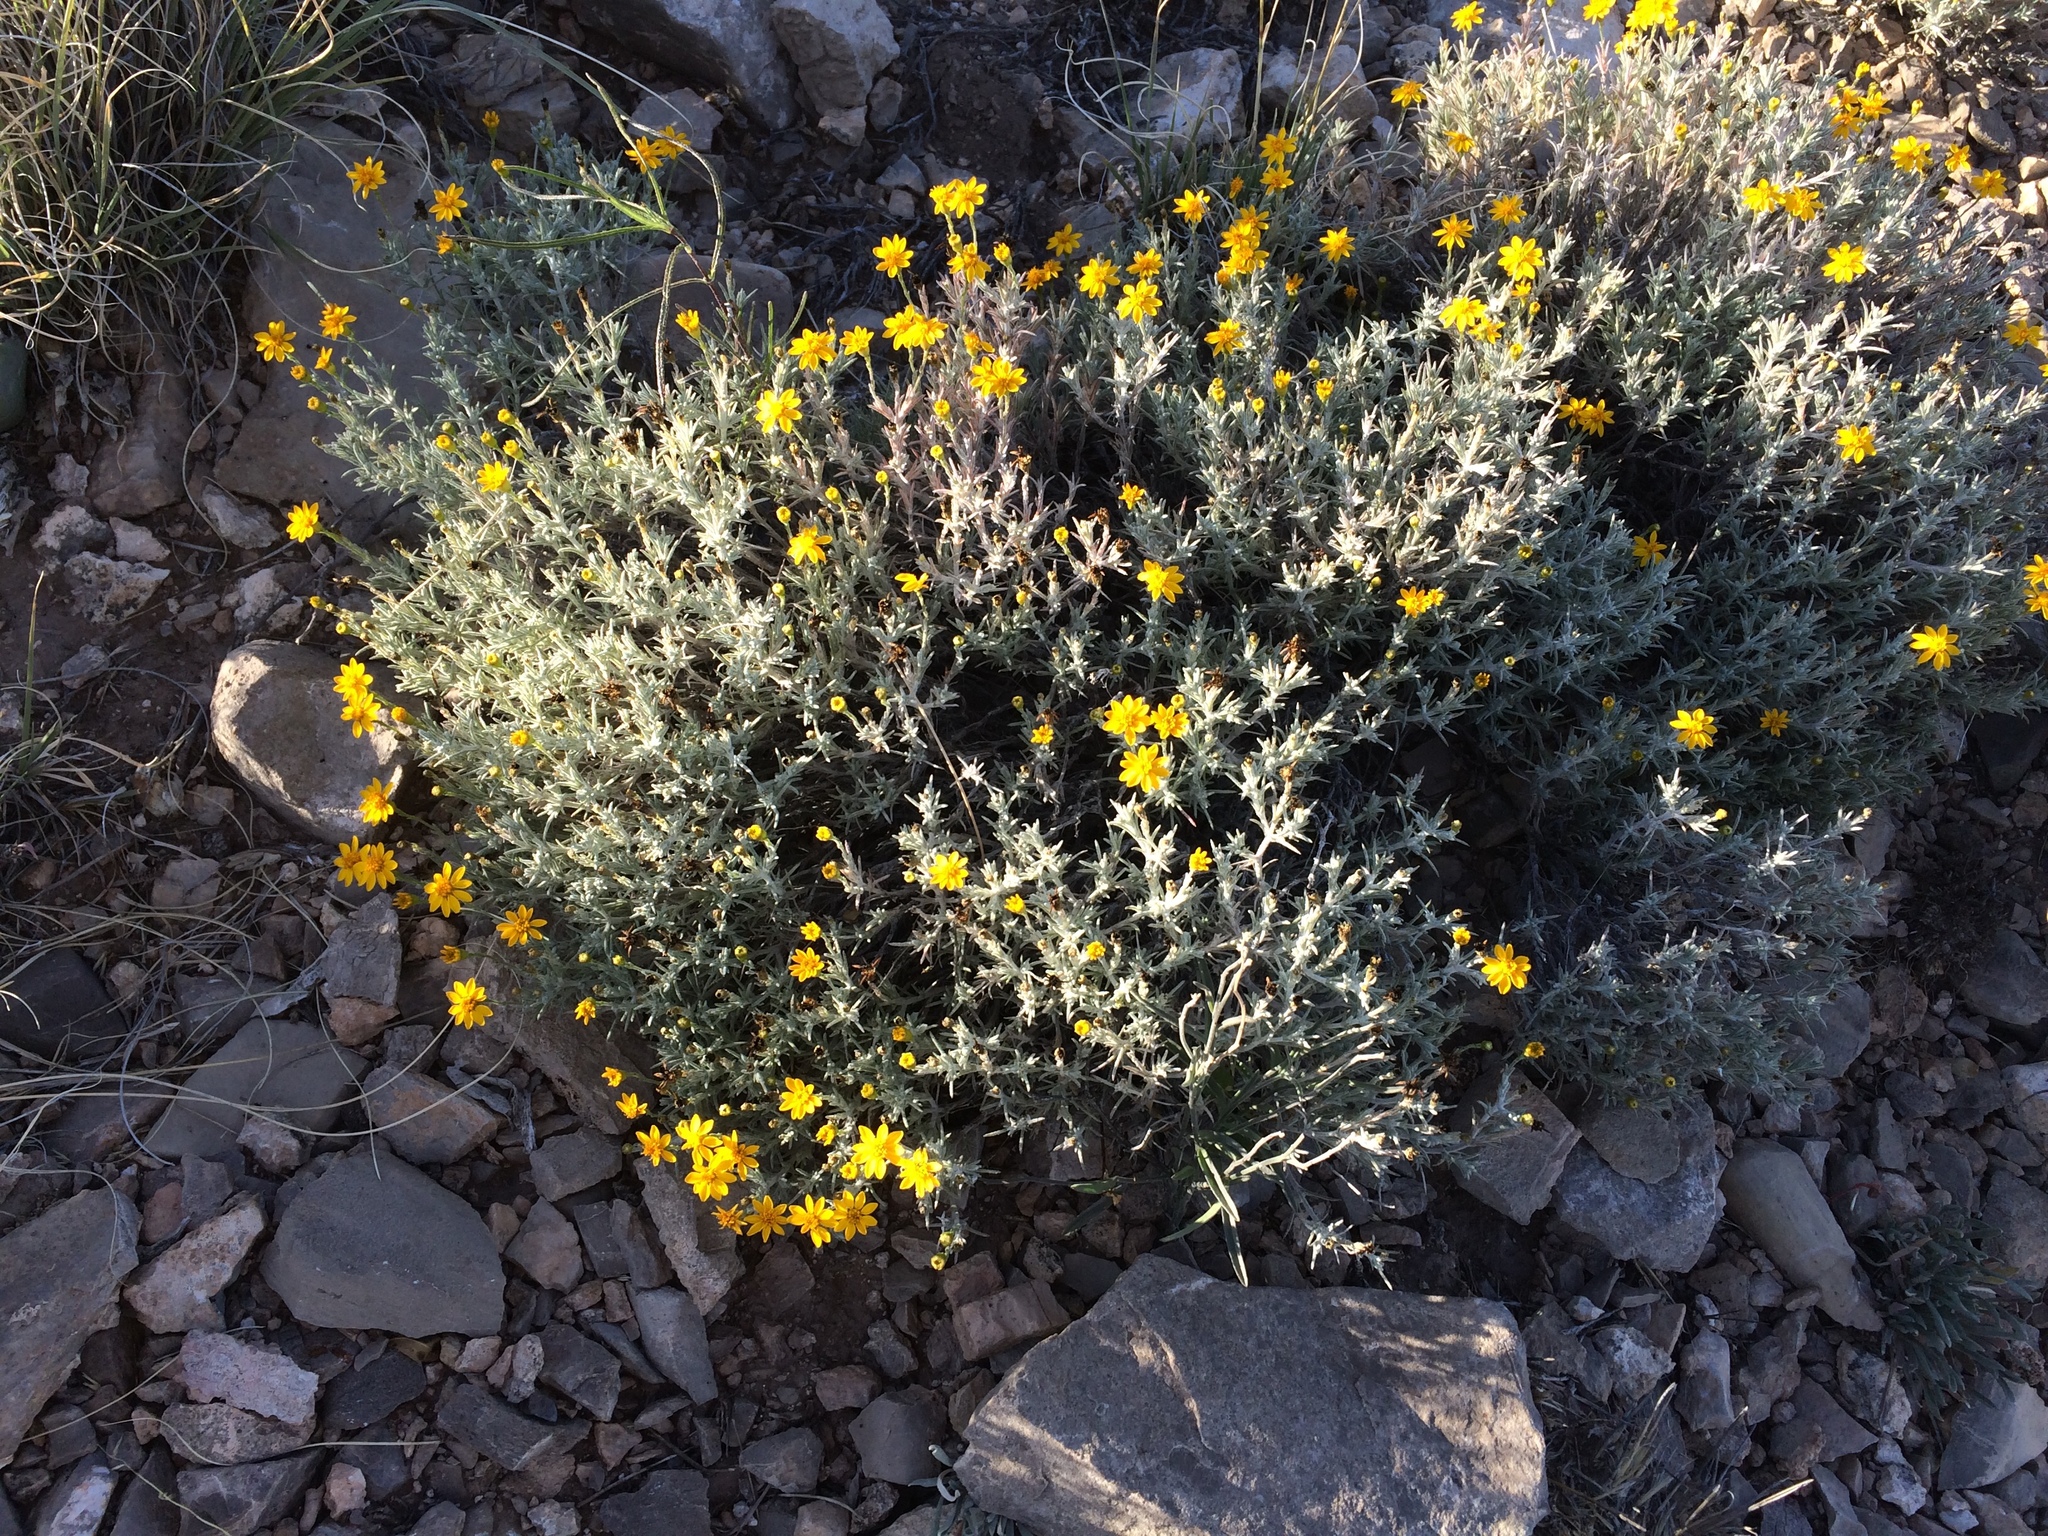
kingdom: Plantae
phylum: Tracheophyta
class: Magnoliopsida
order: Asterales
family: Asteraceae
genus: Thymophylla
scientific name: Thymophylla setifolia
